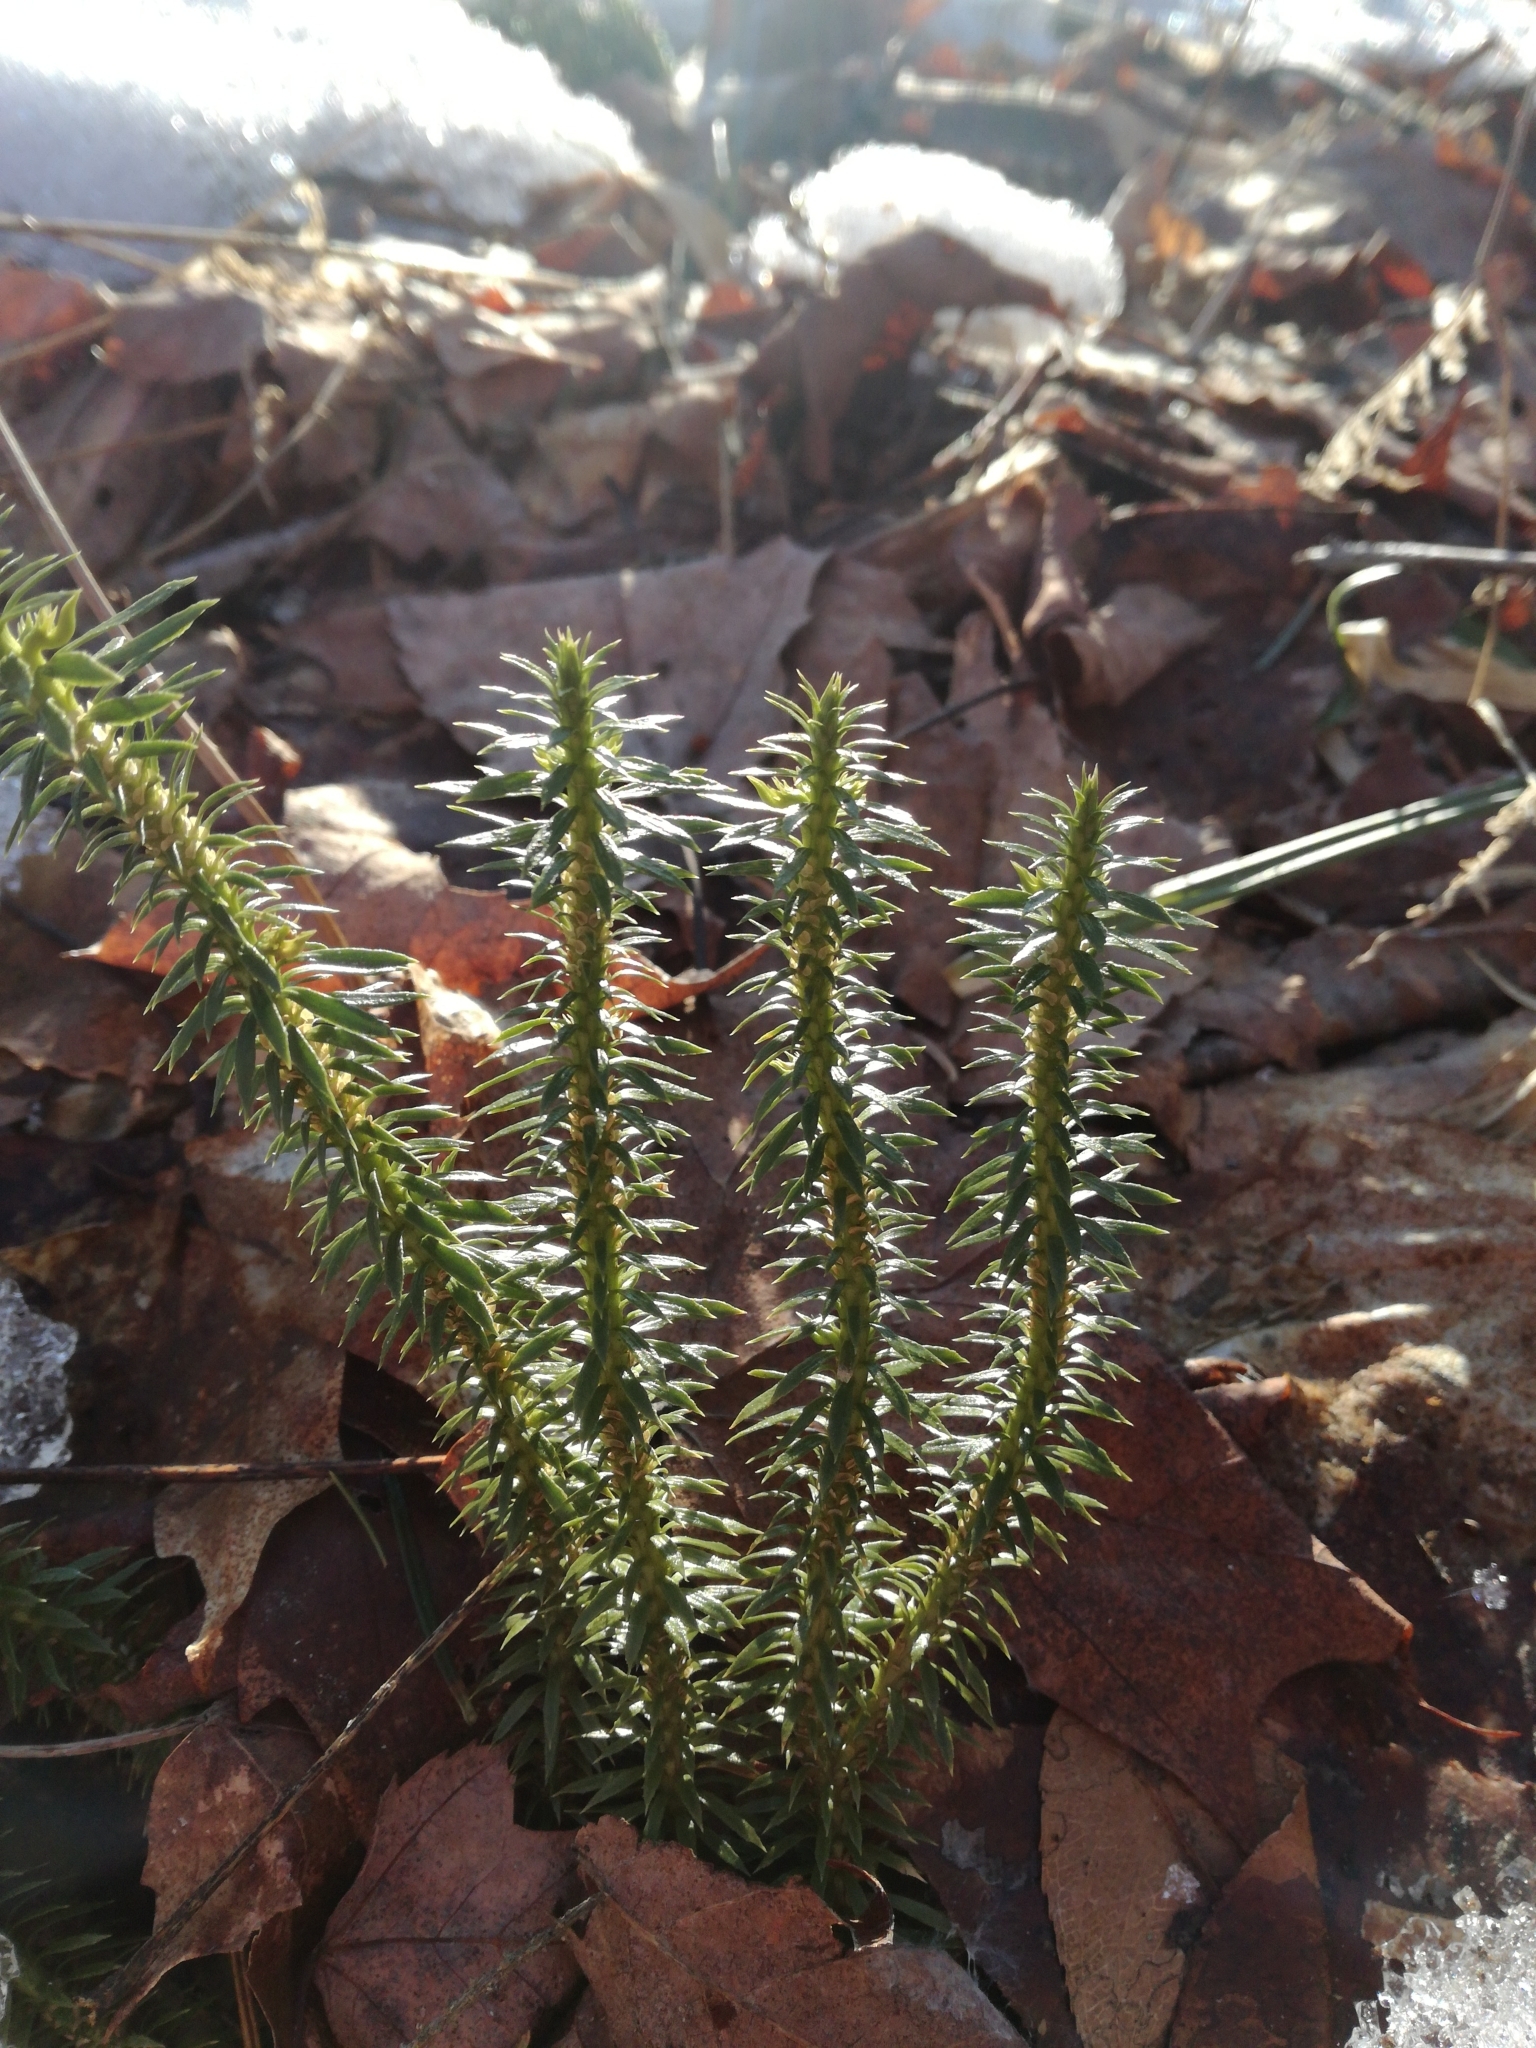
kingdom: Plantae
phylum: Tracheophyta
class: Lycopodiopsida
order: Lycopodiales
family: Lycopodiaceae
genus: Huperzia
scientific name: Huperzia lucidula
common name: Shining clubmoss
